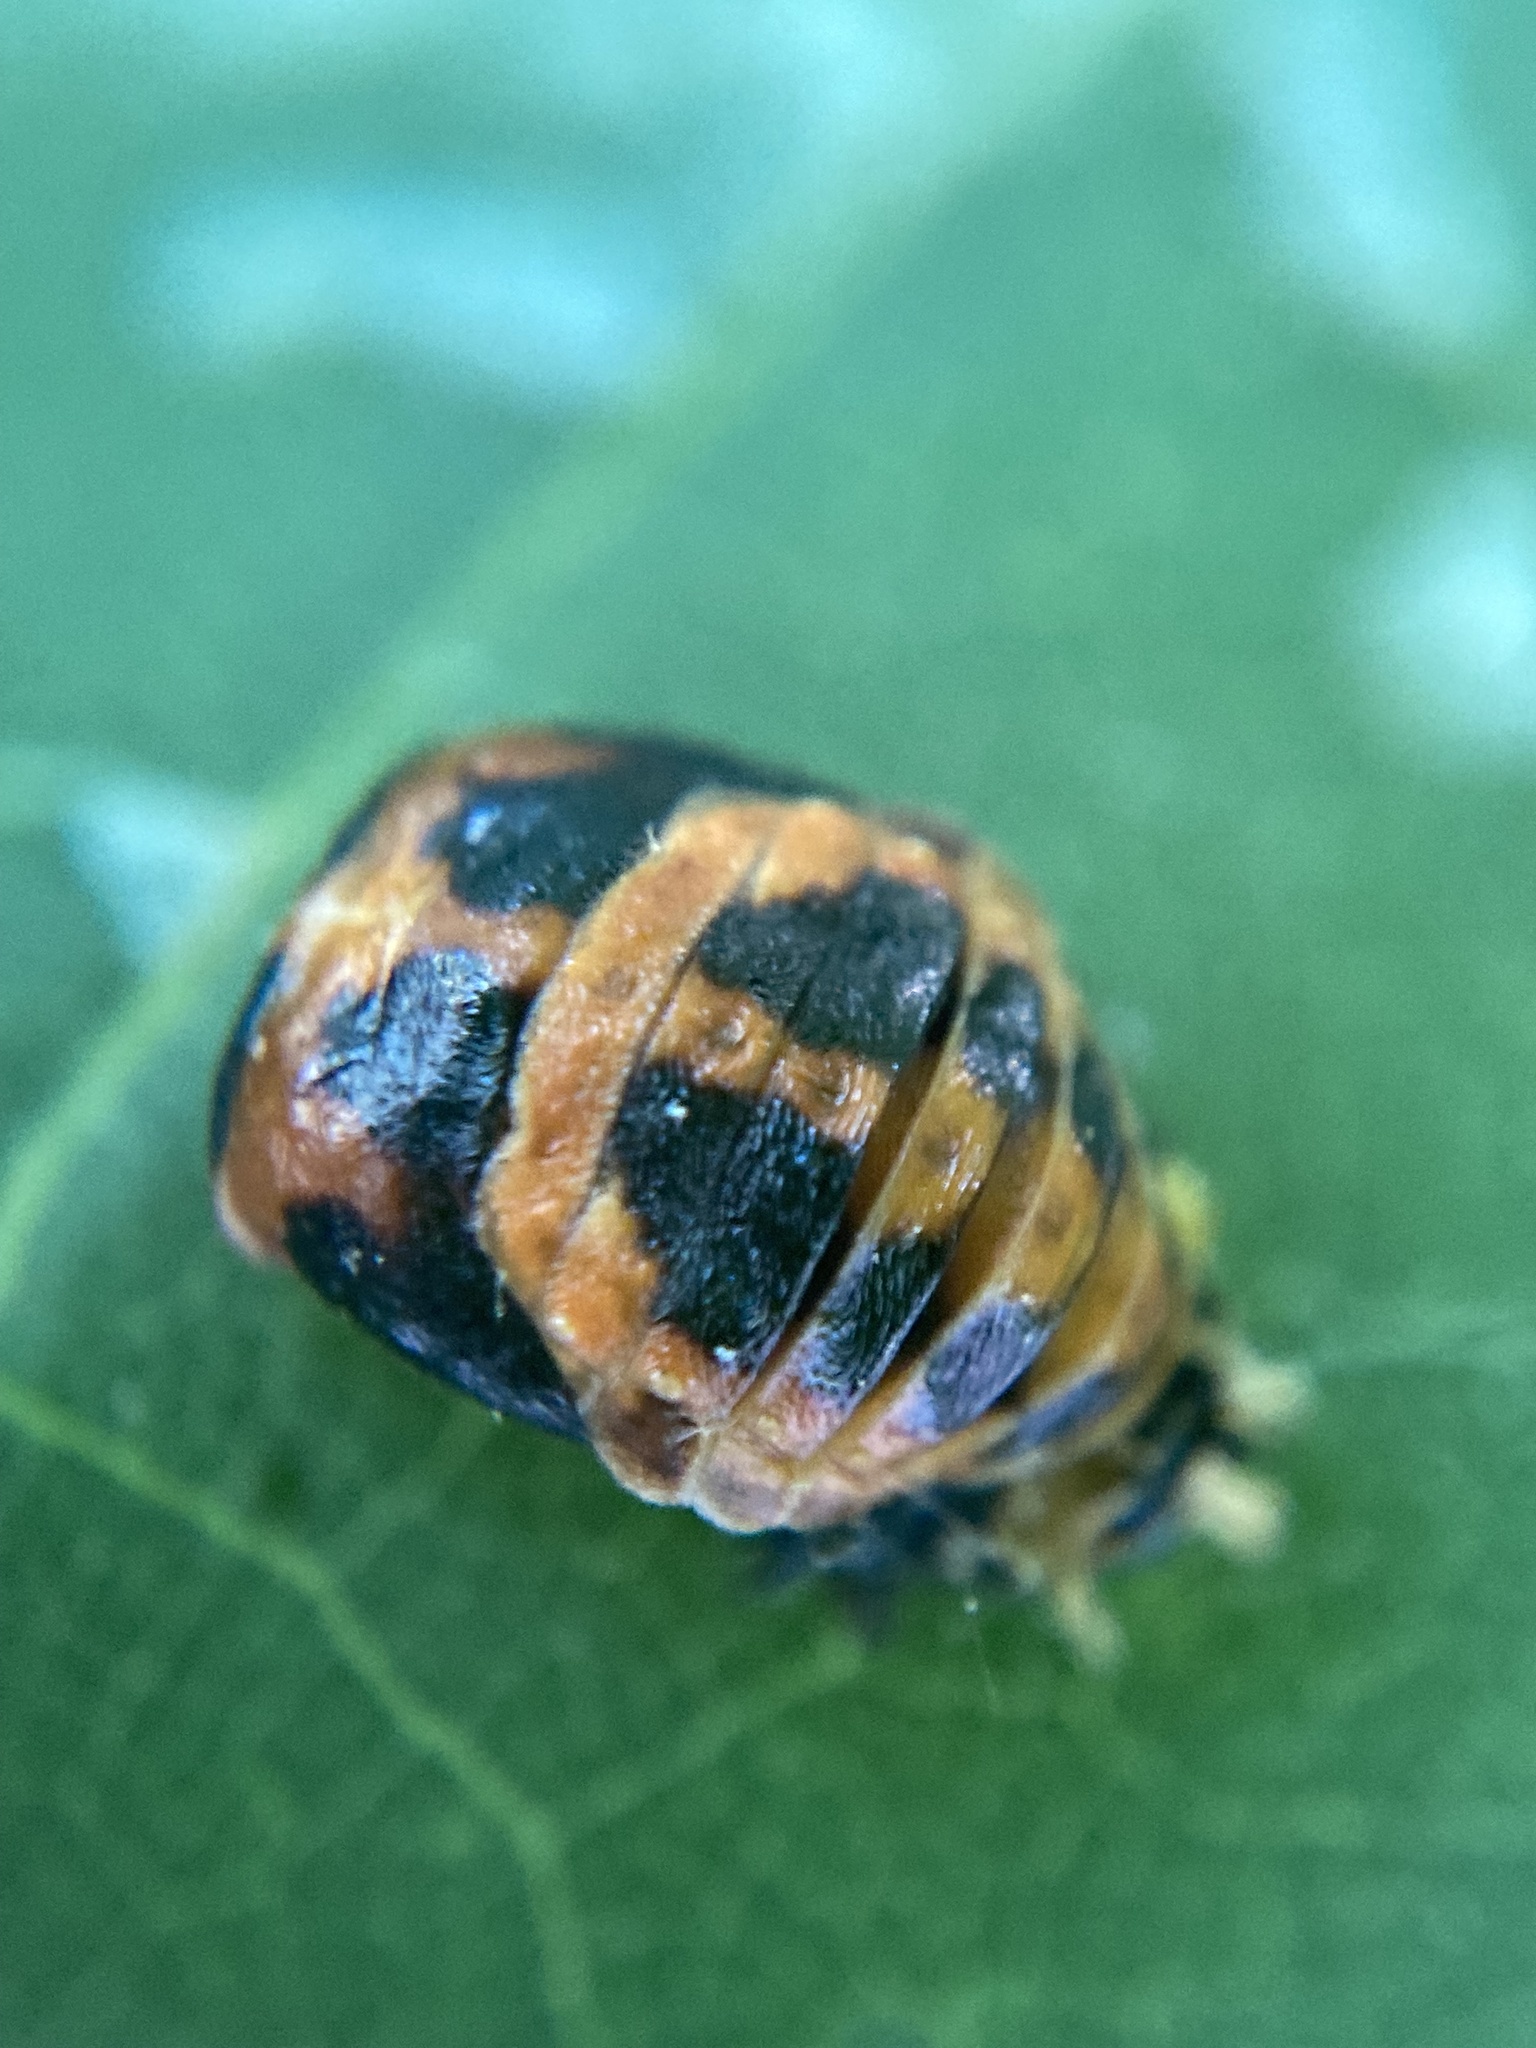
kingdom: Animalia
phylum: Arthropoda
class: Insecta
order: Coleoptera
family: Coccinellidae
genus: Harmonia
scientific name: Harmonia axyridis
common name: Harlequin ladybird
